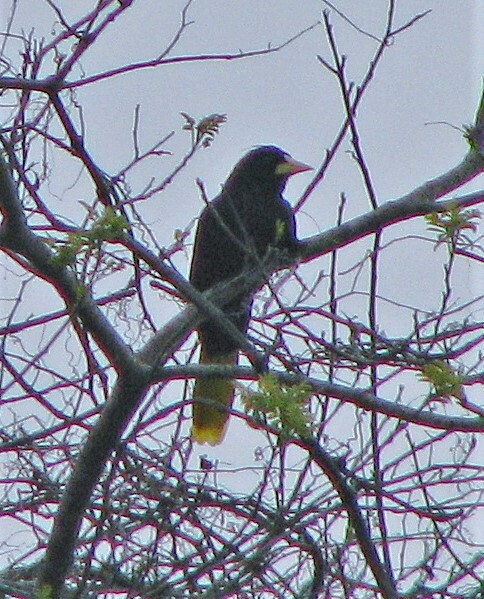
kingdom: Animalia
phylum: Chordata
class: Aves
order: Passeriformes
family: Icteridae
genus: Psarocolius
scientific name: Psarocolius decumanus
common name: Crested oropendola
